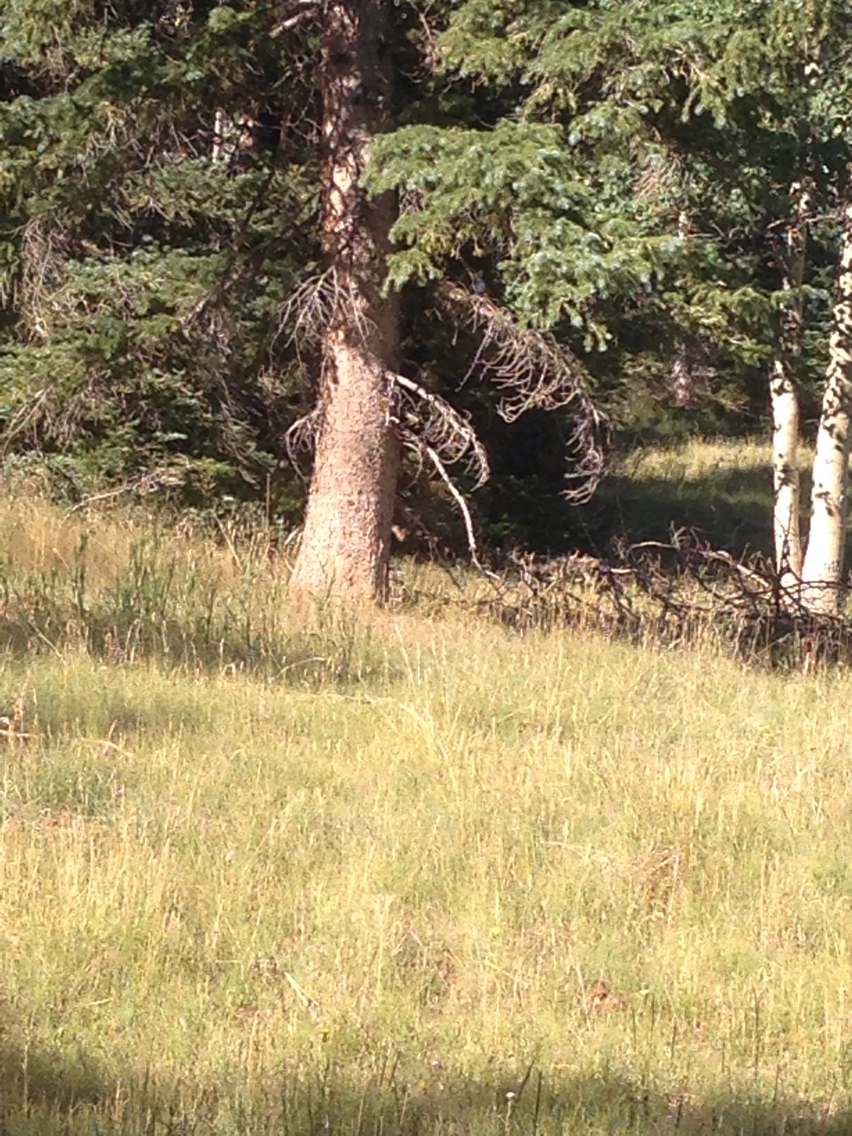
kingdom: Animalia
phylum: Chordata
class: Aves
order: Passeriformes
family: Corvidae
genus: Cyanocitta
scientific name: Cyanocitta stelleri
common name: Steller's jay
